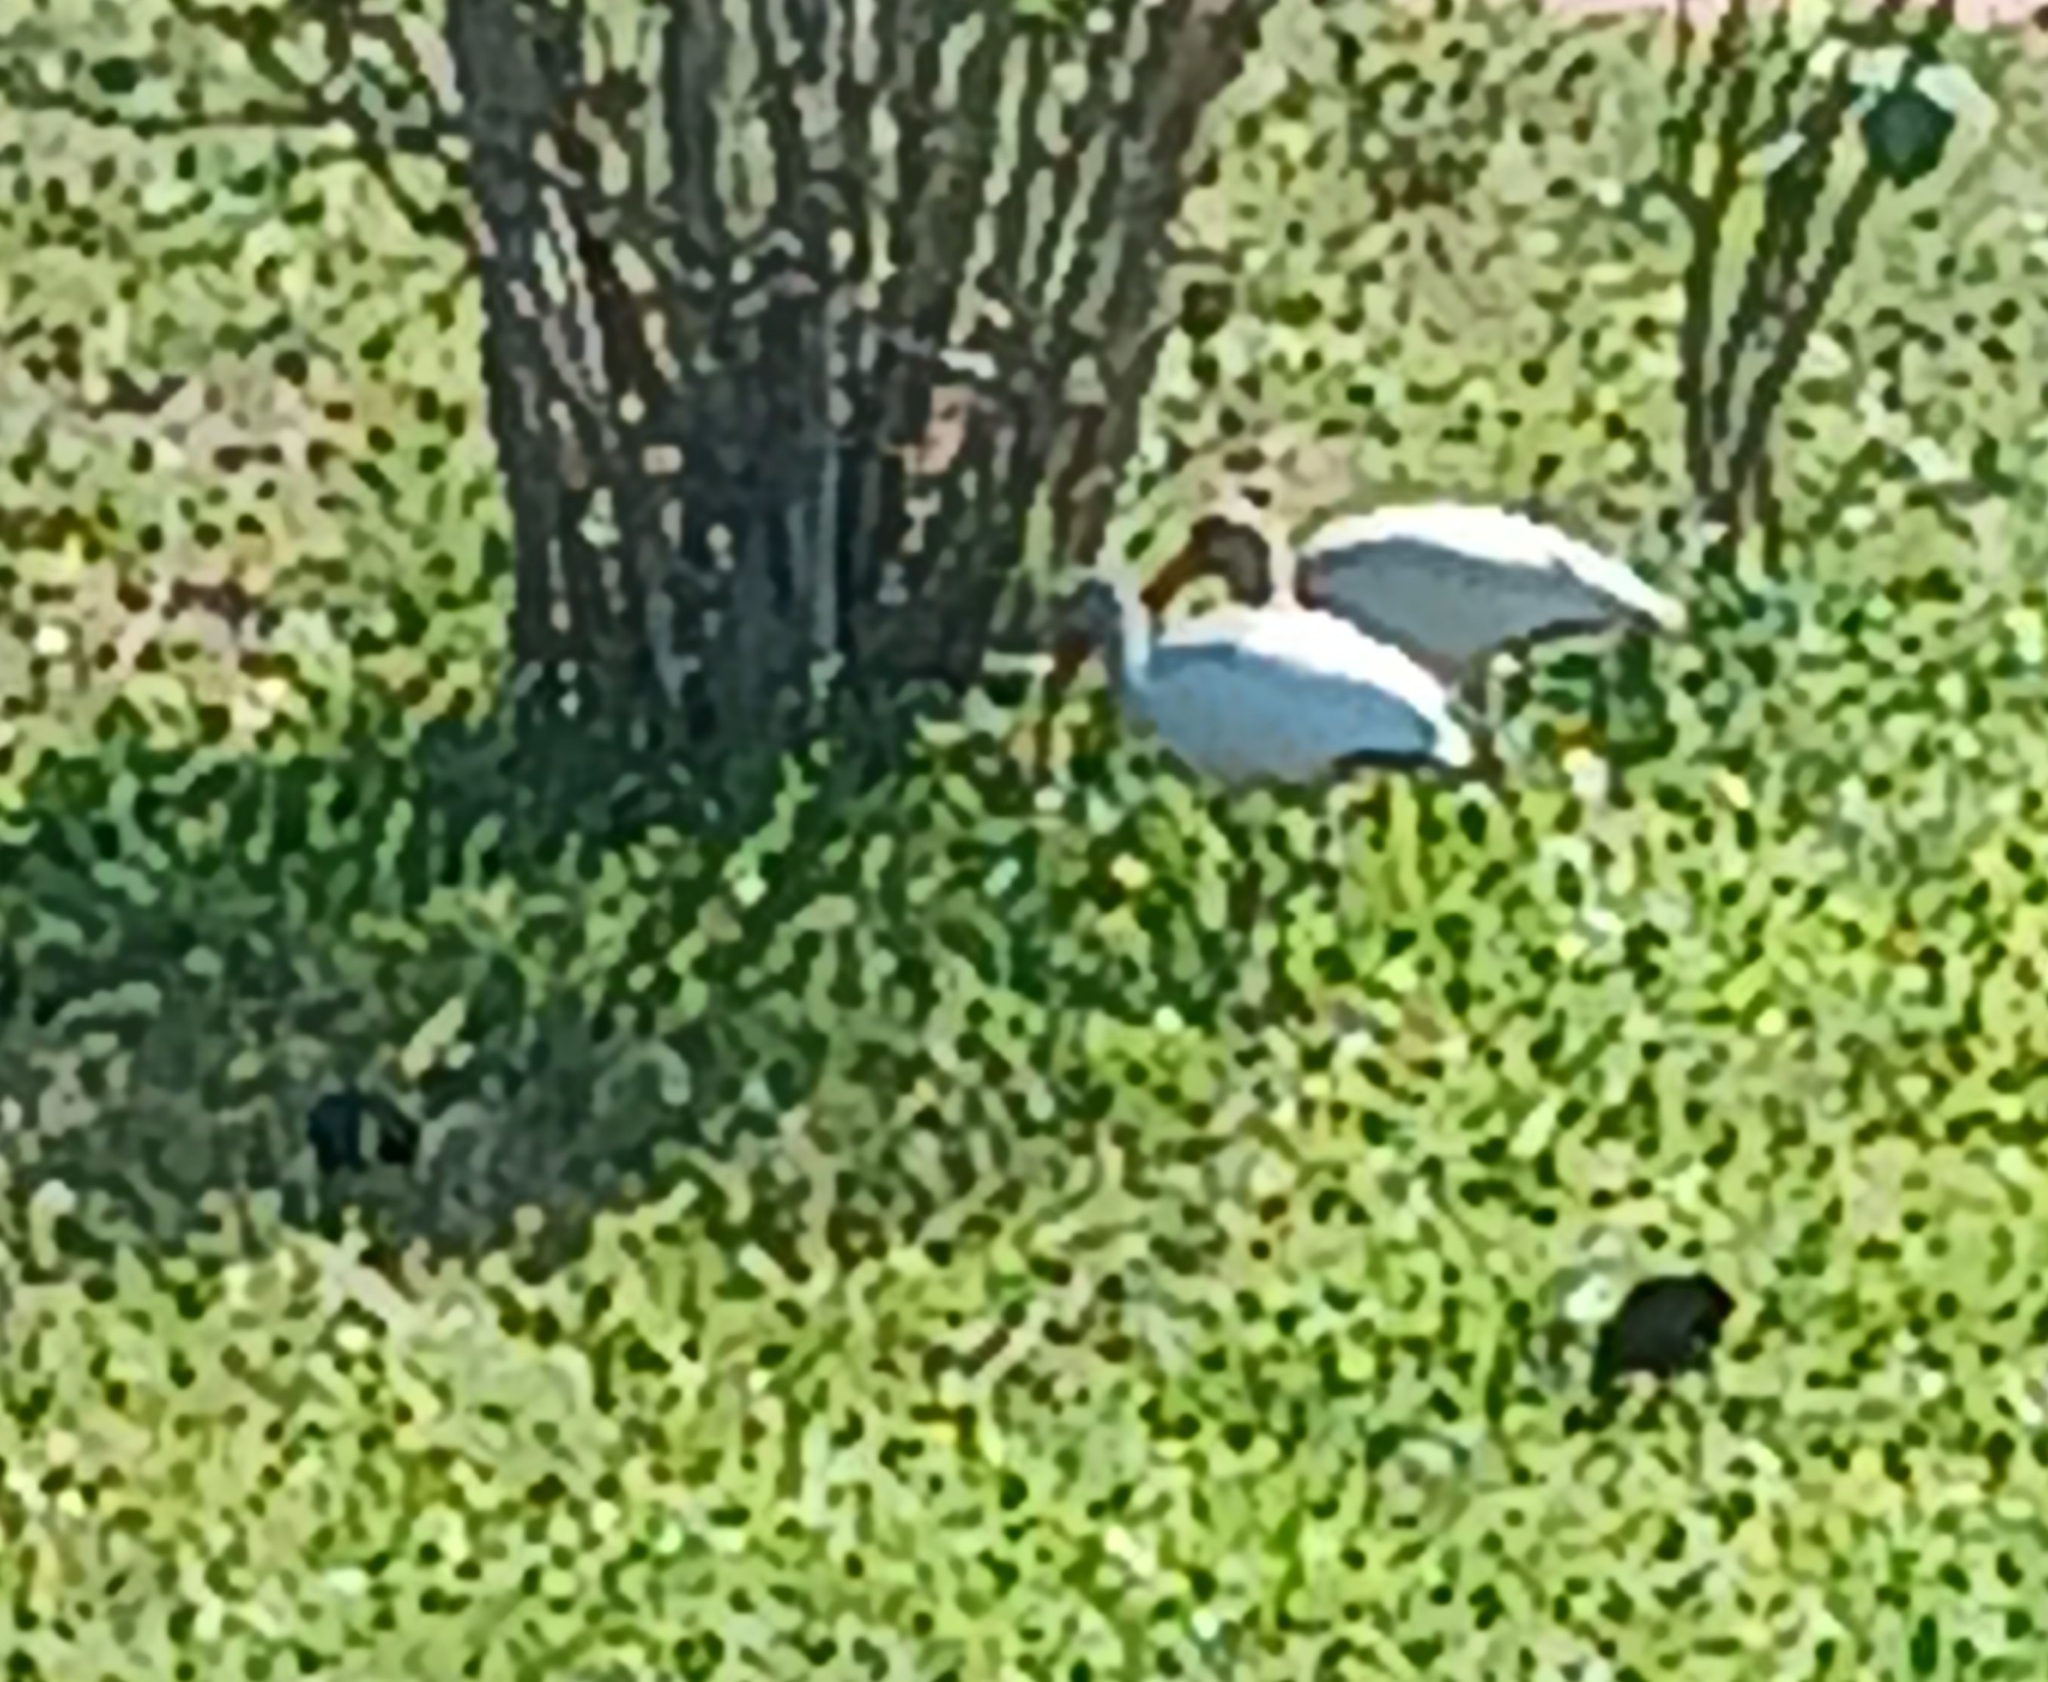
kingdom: Animalia
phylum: Chordata
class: Aves
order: Pelecaniformes
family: Threskiornithidae
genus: Eudocimus
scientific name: Eudocimus albus
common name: White ibis
